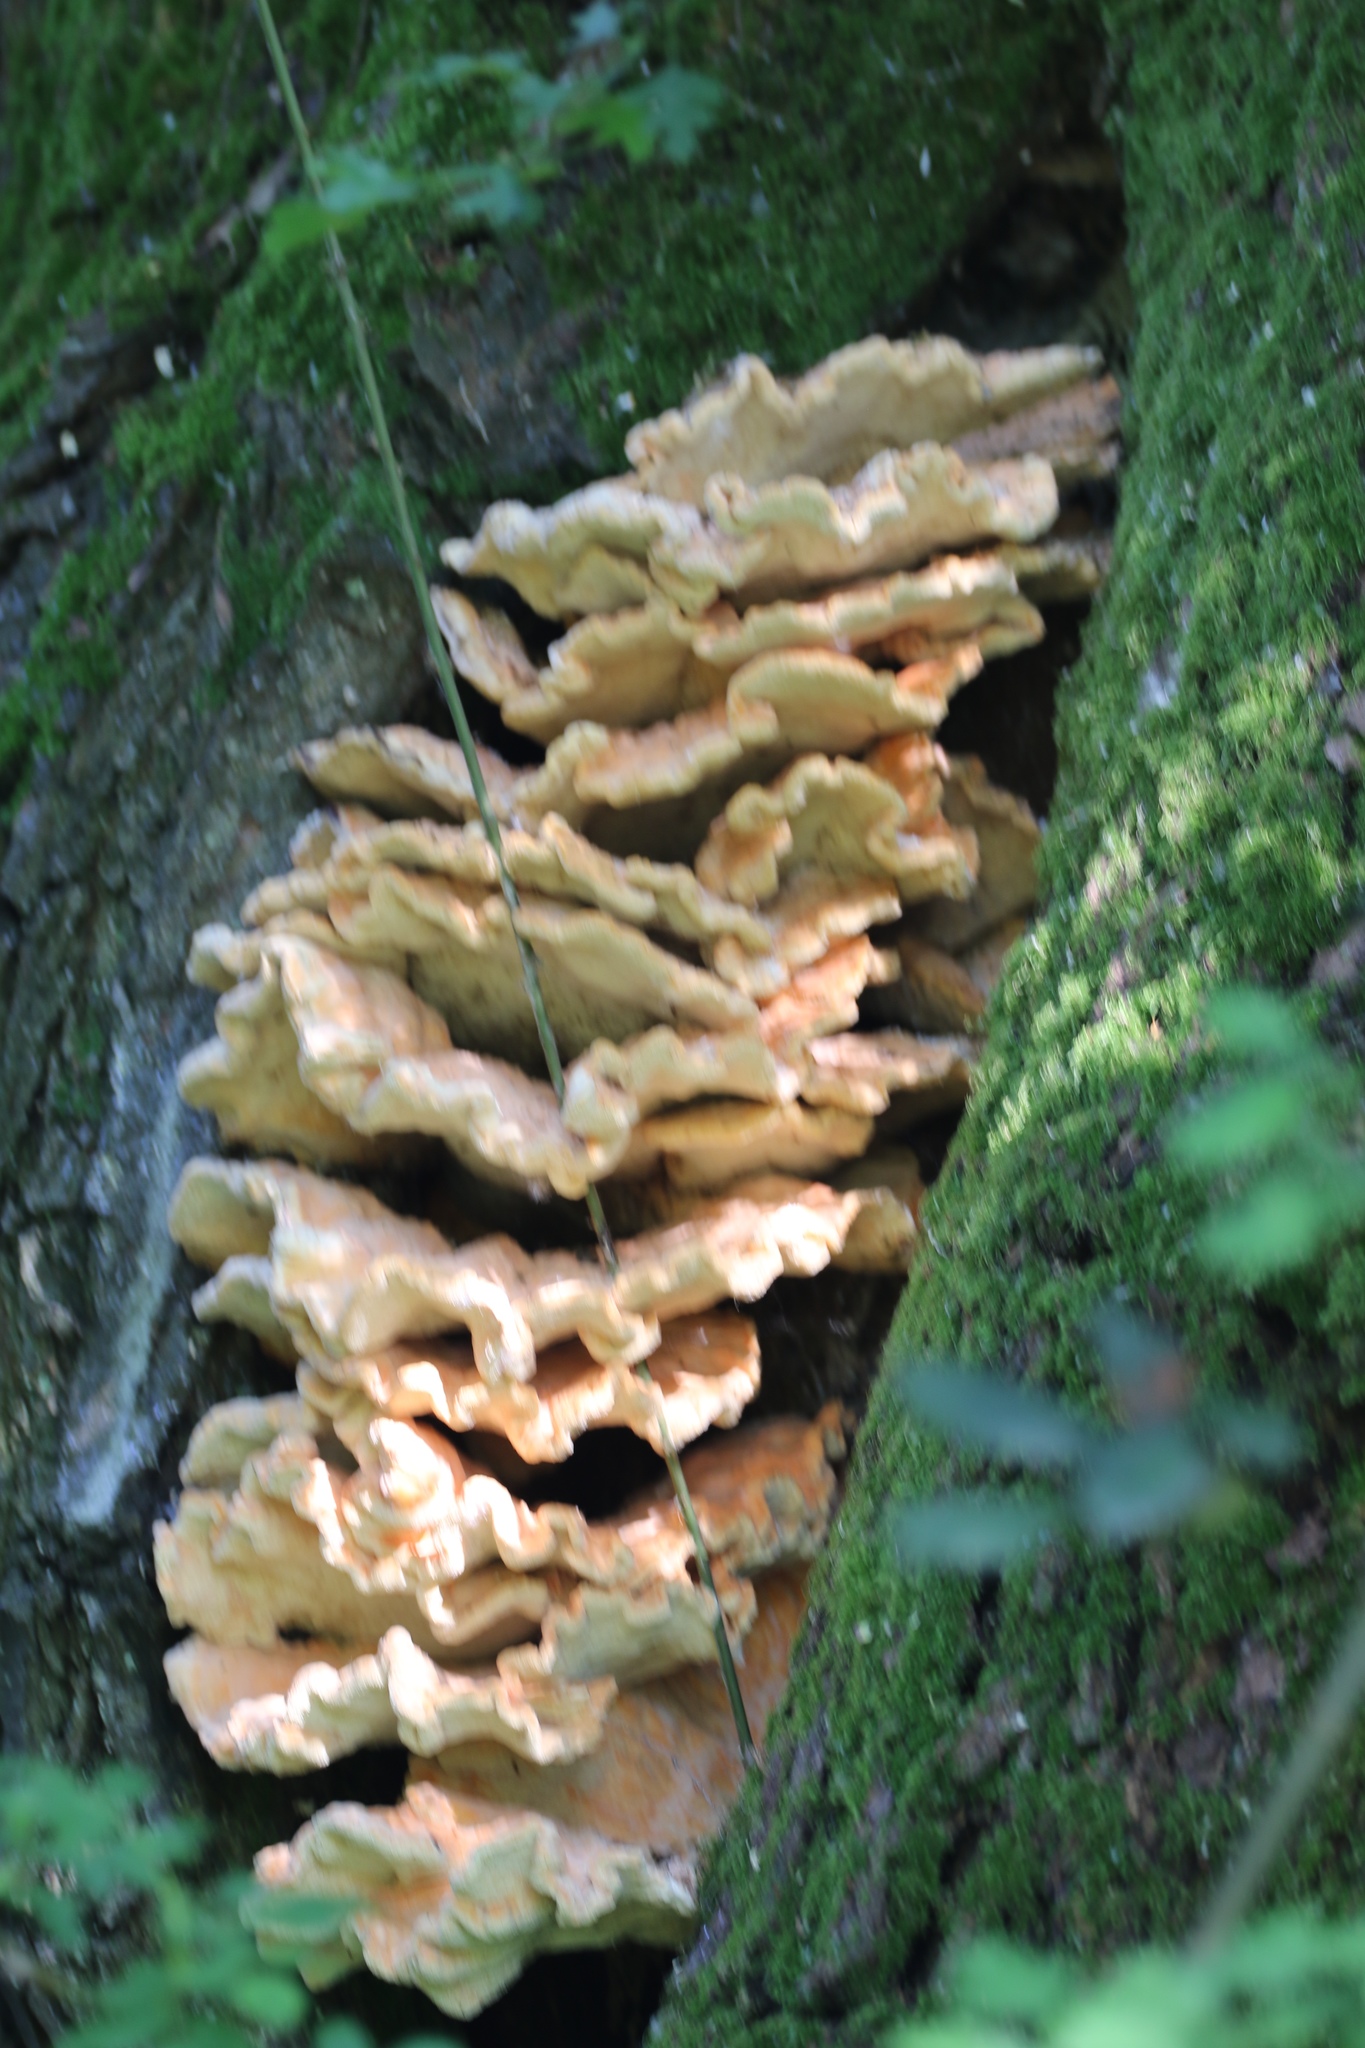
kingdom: Fungi
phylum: Basidiomycota
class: Agaricomycetes
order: Polyporales
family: Laetiporaceae
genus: Laetiporus
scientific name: Laetiporus sulphureus
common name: Chicken of the woods
